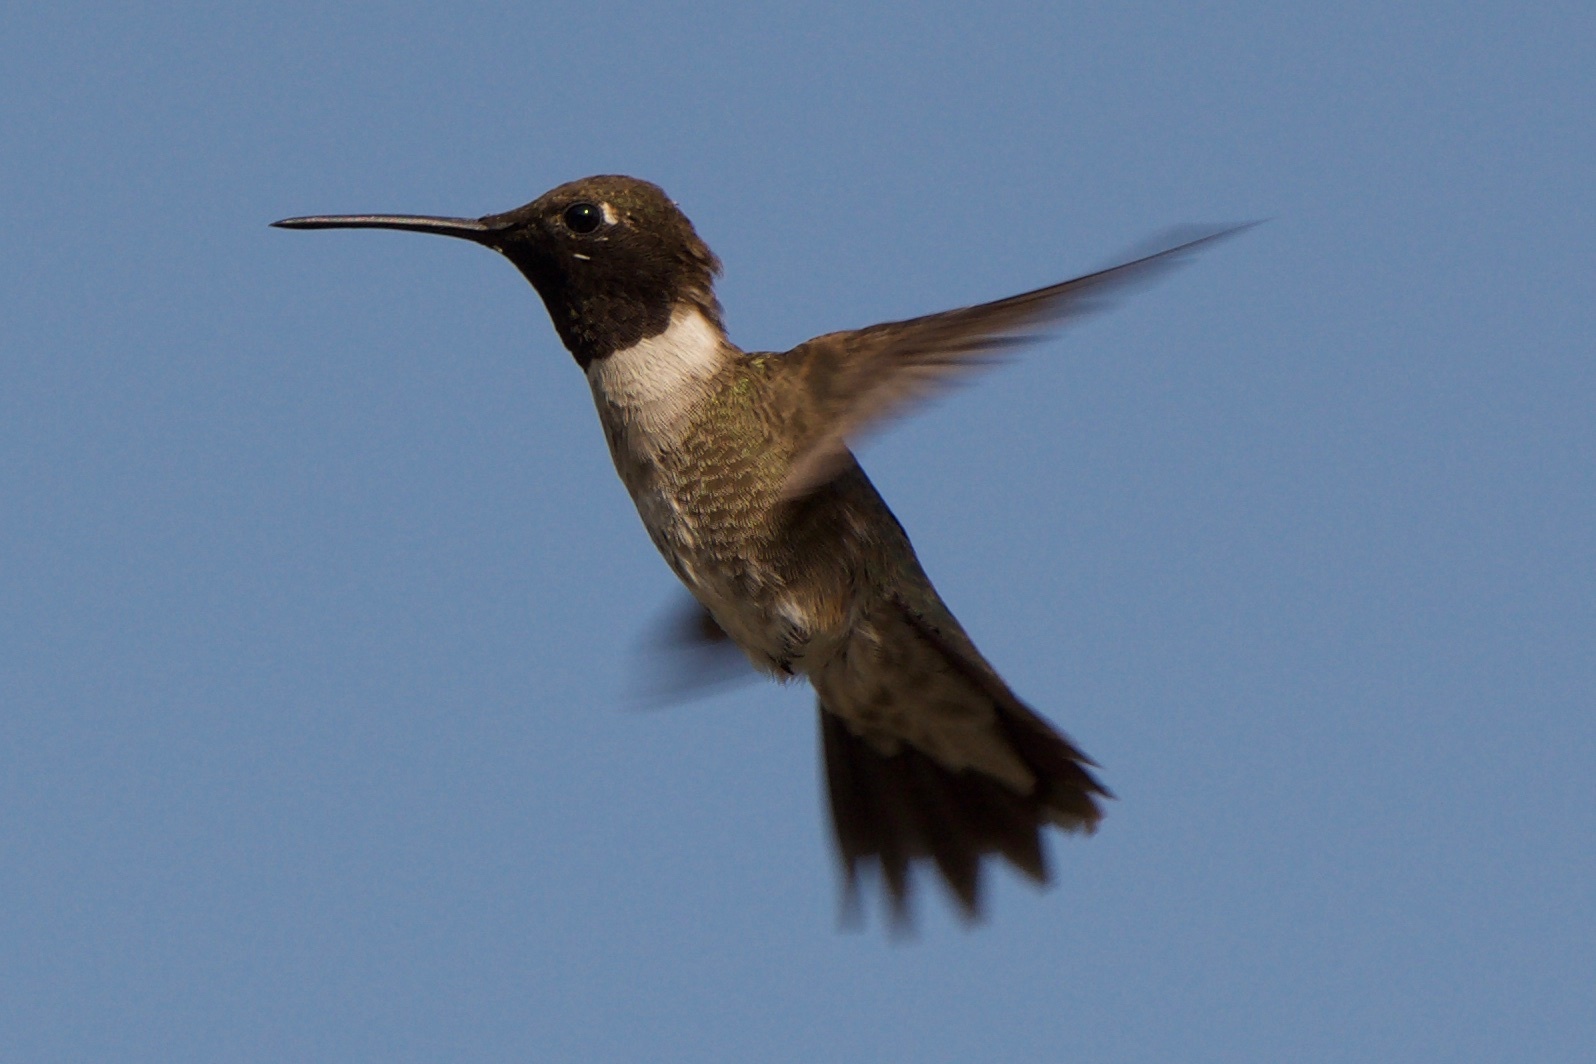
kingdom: Animalia
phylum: Chordata
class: Aves
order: Apodiformes
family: Trochilidae
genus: Calypte
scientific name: Calypte anna
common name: Anna's hummingbird
